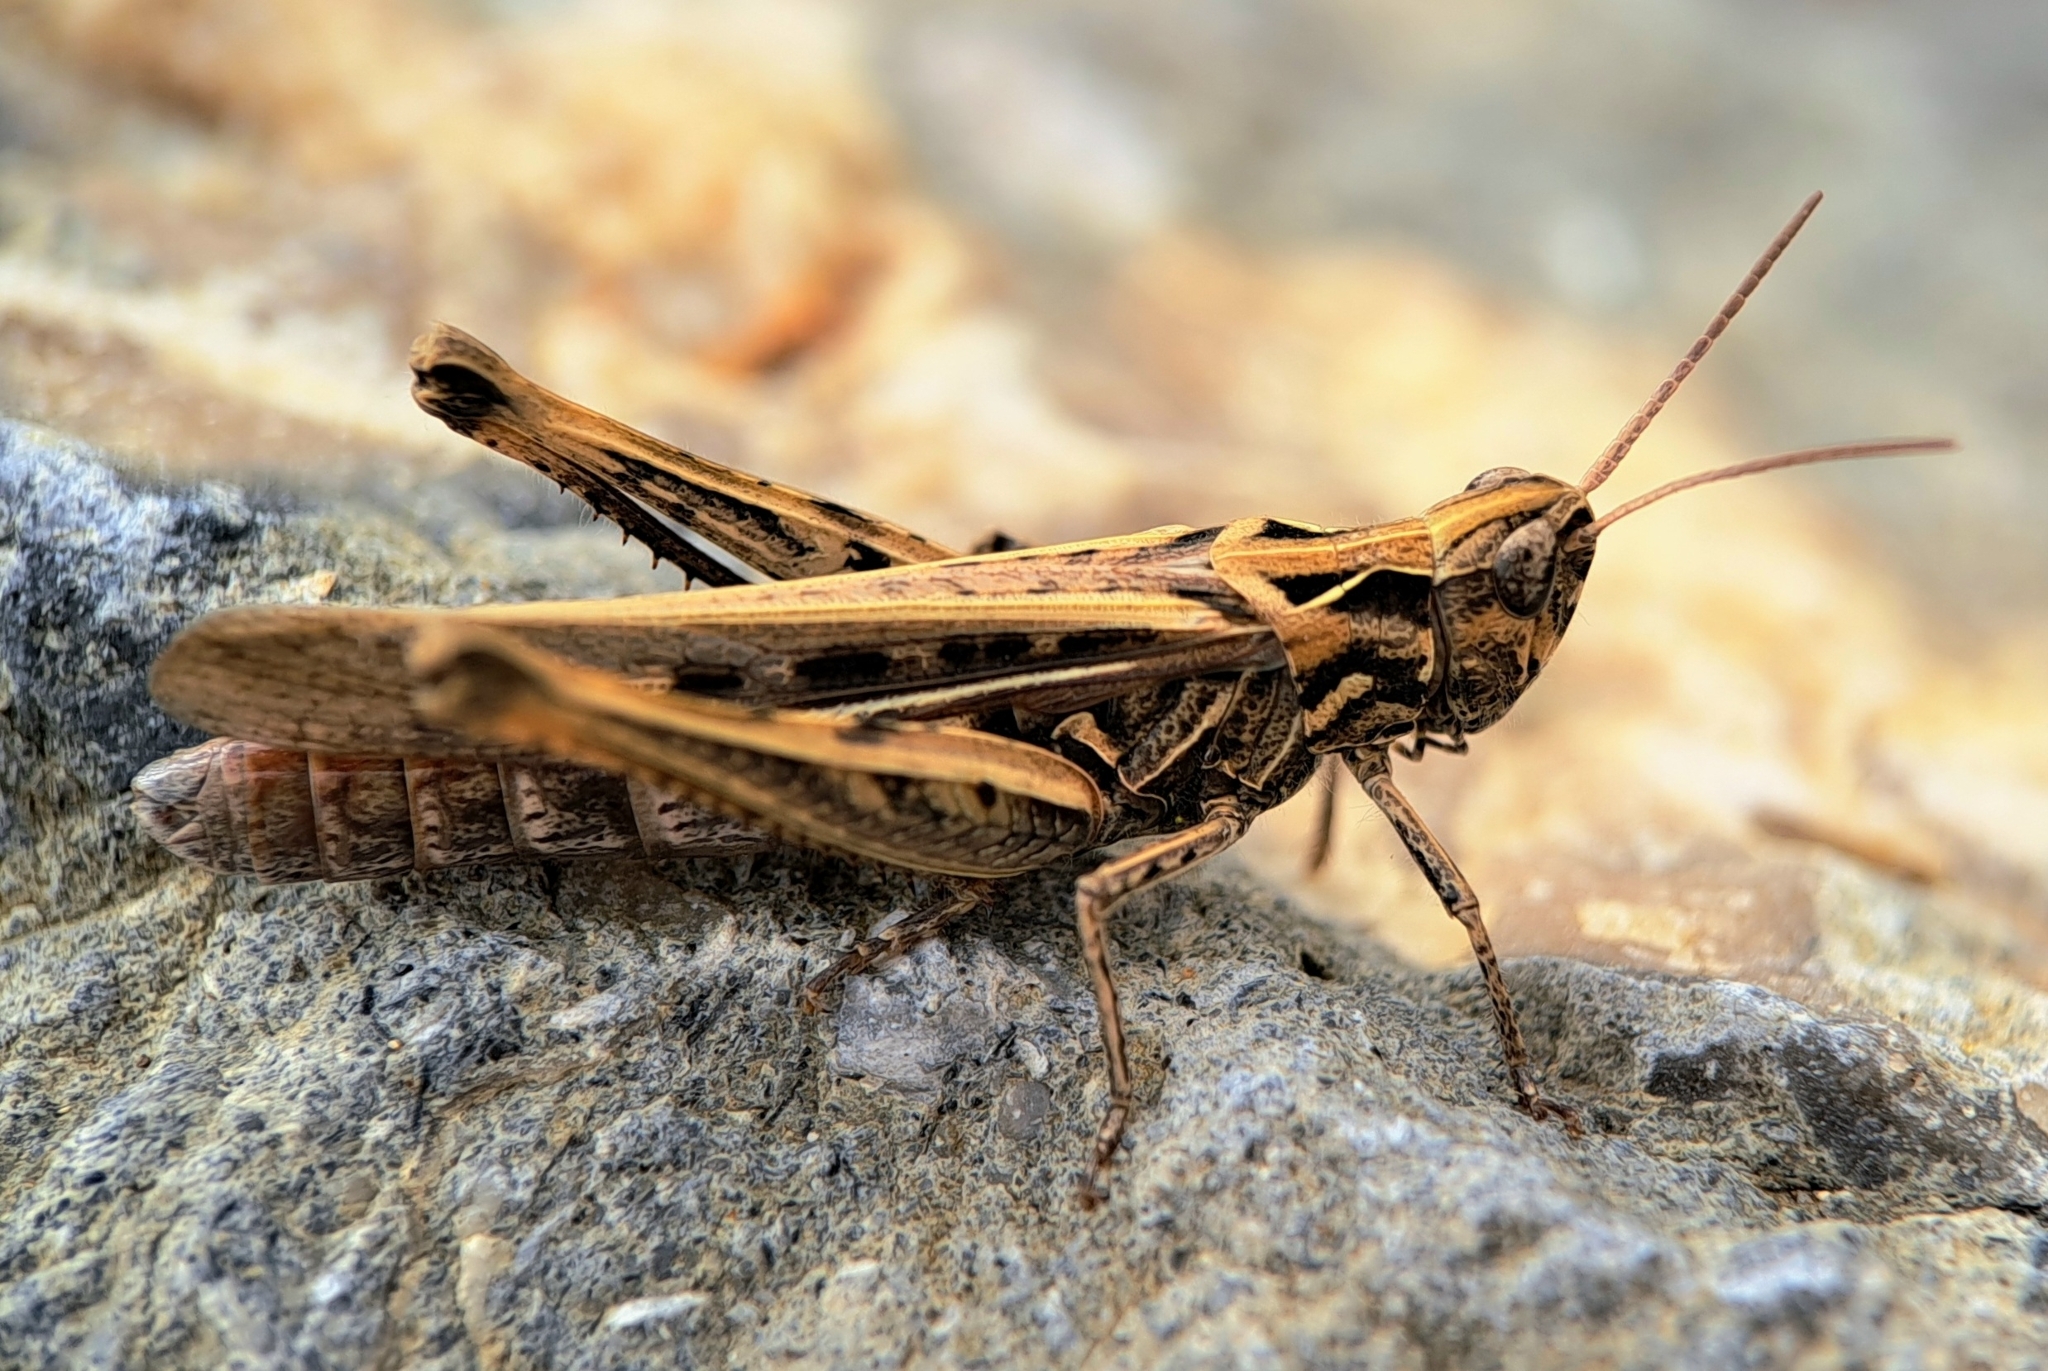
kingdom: Animalia
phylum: Arthropoda
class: Insecta
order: Orthoptera
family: Acrididae
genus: Chorthippus
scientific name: Chorthippus brunneus
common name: Field grasshopper
